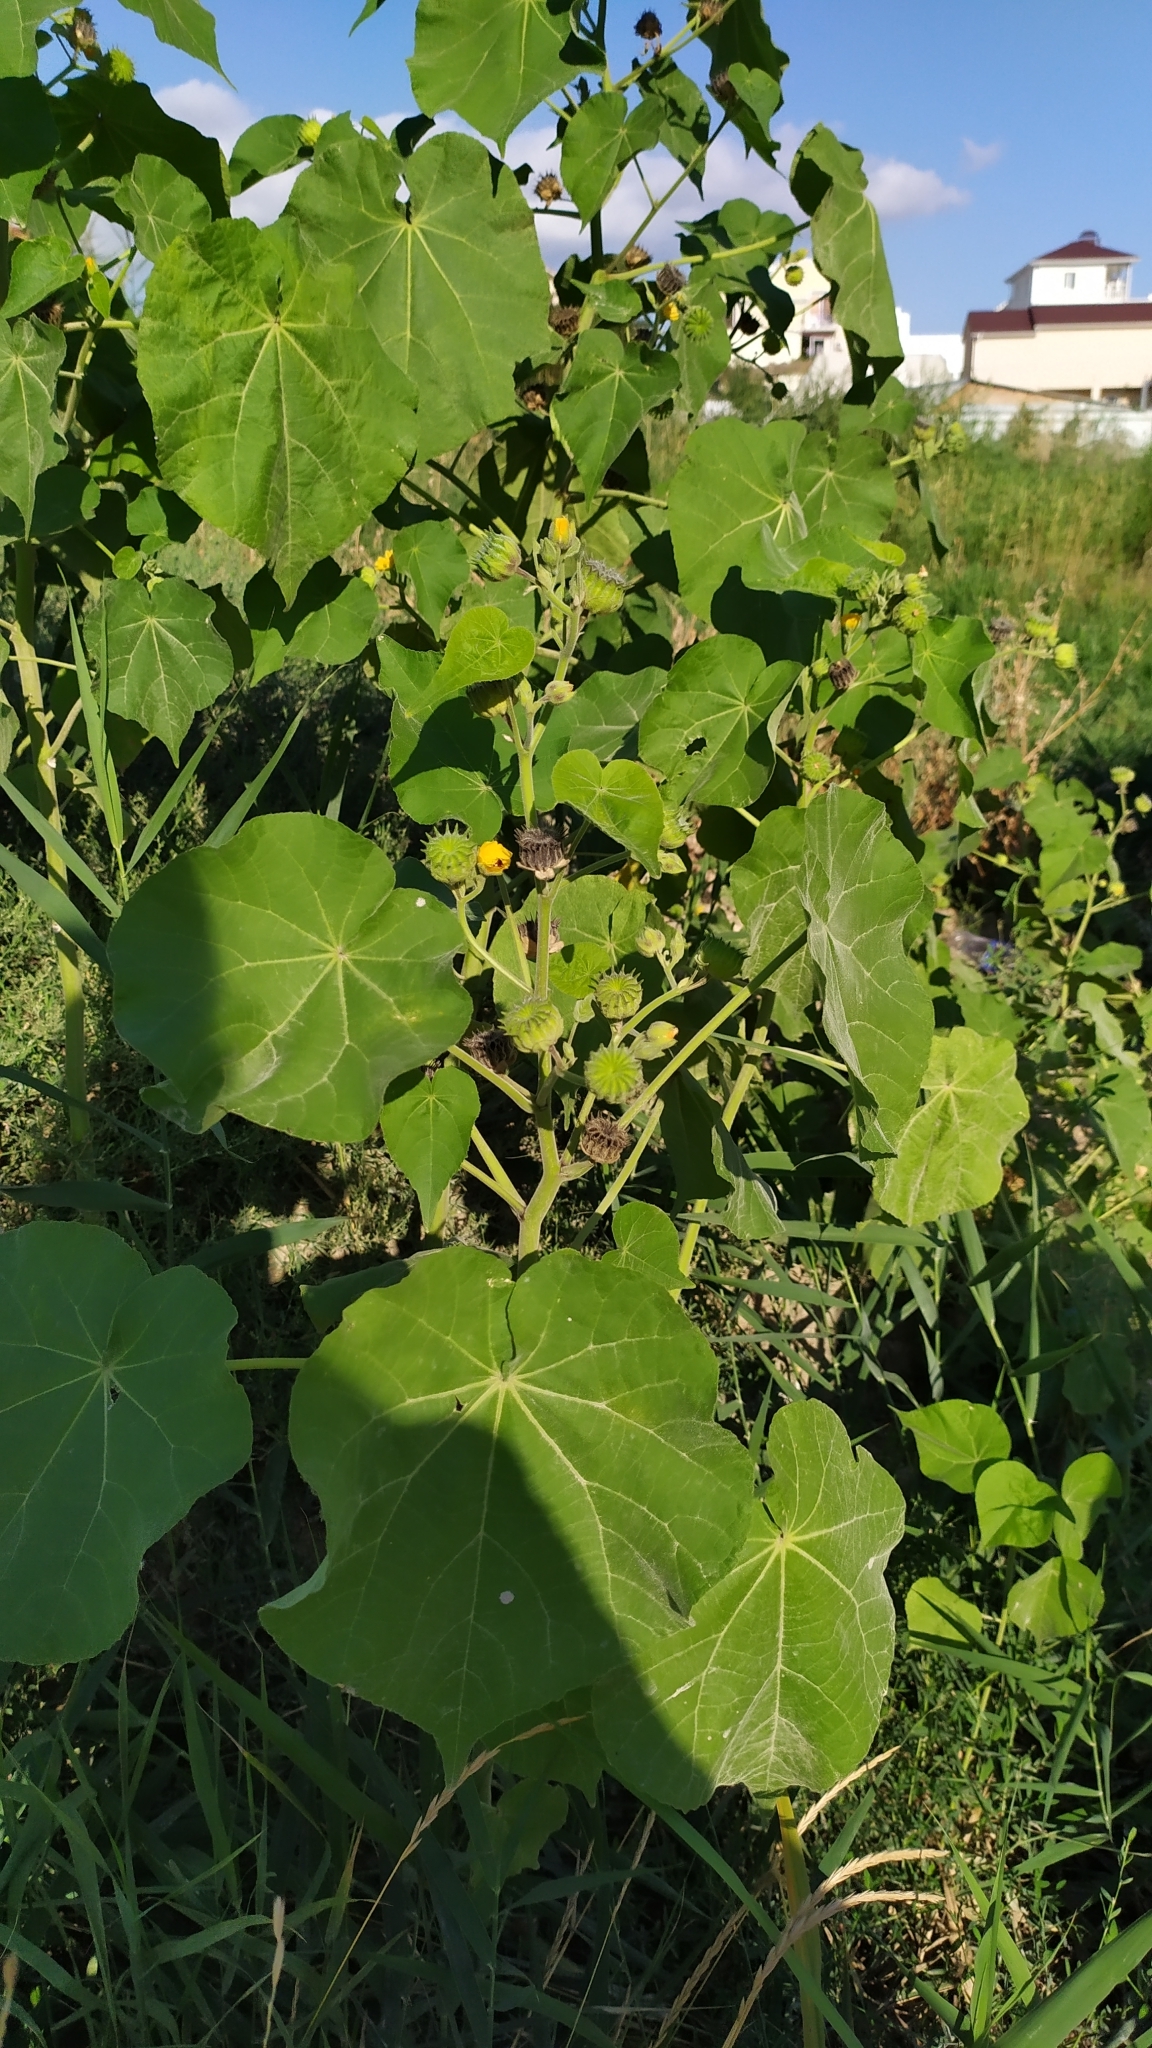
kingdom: Plantae
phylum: Tracheophyta
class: Magnoliopsida
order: Malvales
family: Malvaceae
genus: Abutilon
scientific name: Abutilon theophrasti
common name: Velvetleaf
